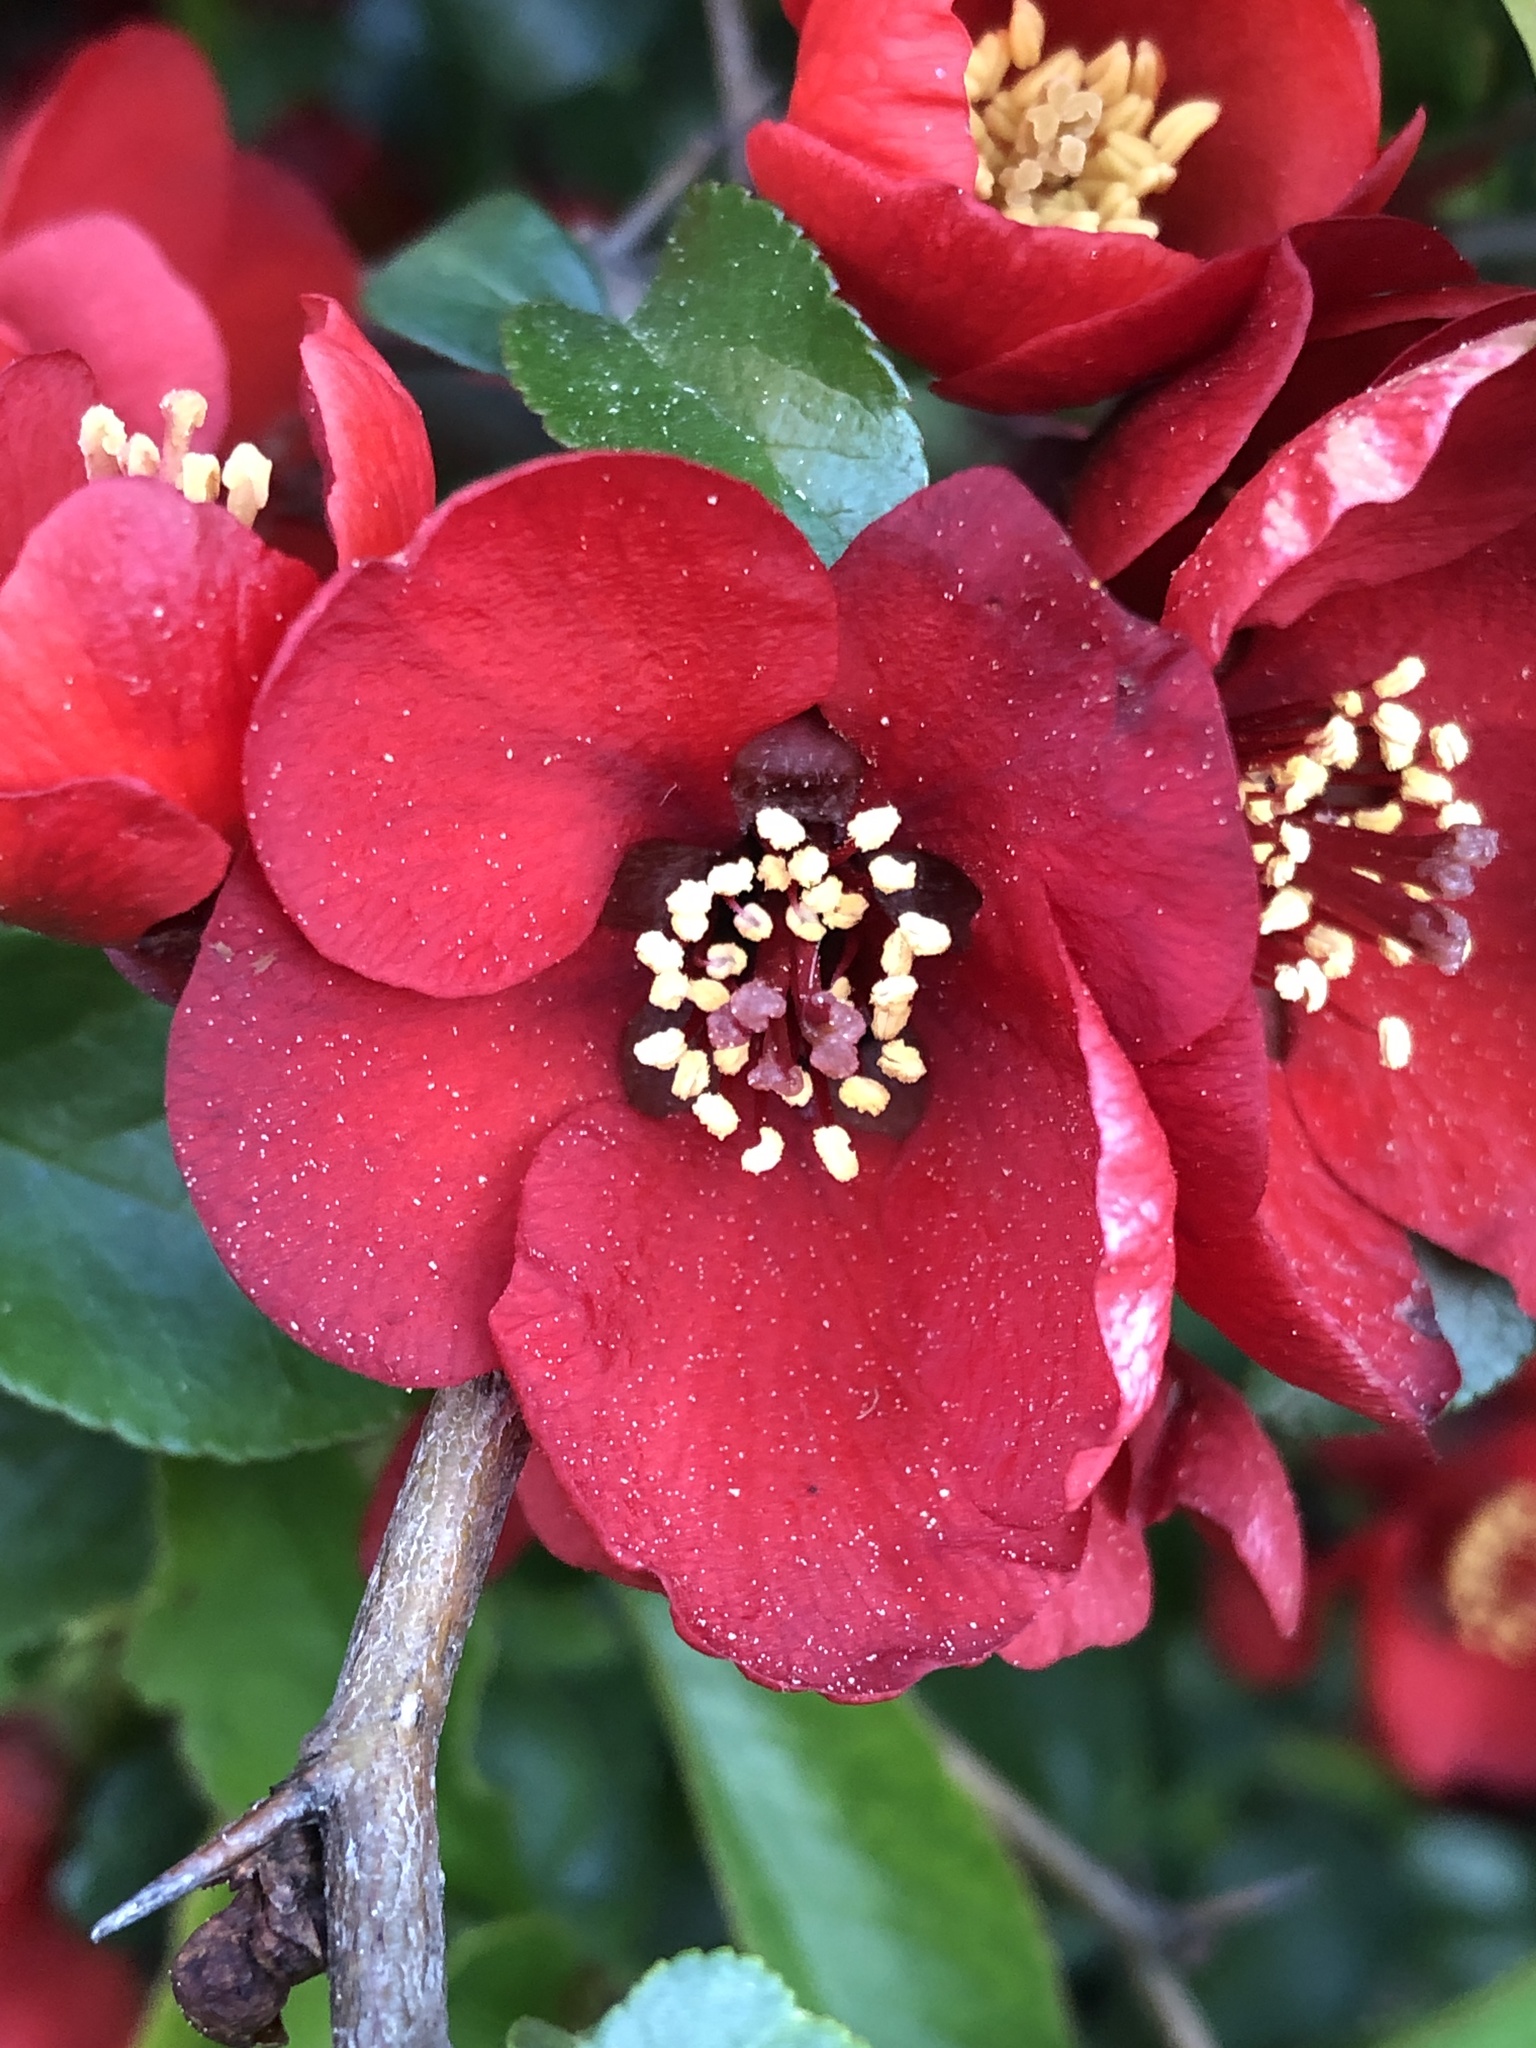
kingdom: Plantae
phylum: Tracheophyta
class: Magnoliopsida
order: Rosales
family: Rosaceae
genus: Chaenomeles
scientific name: Chaenomeles speciosa
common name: Japanese quince
